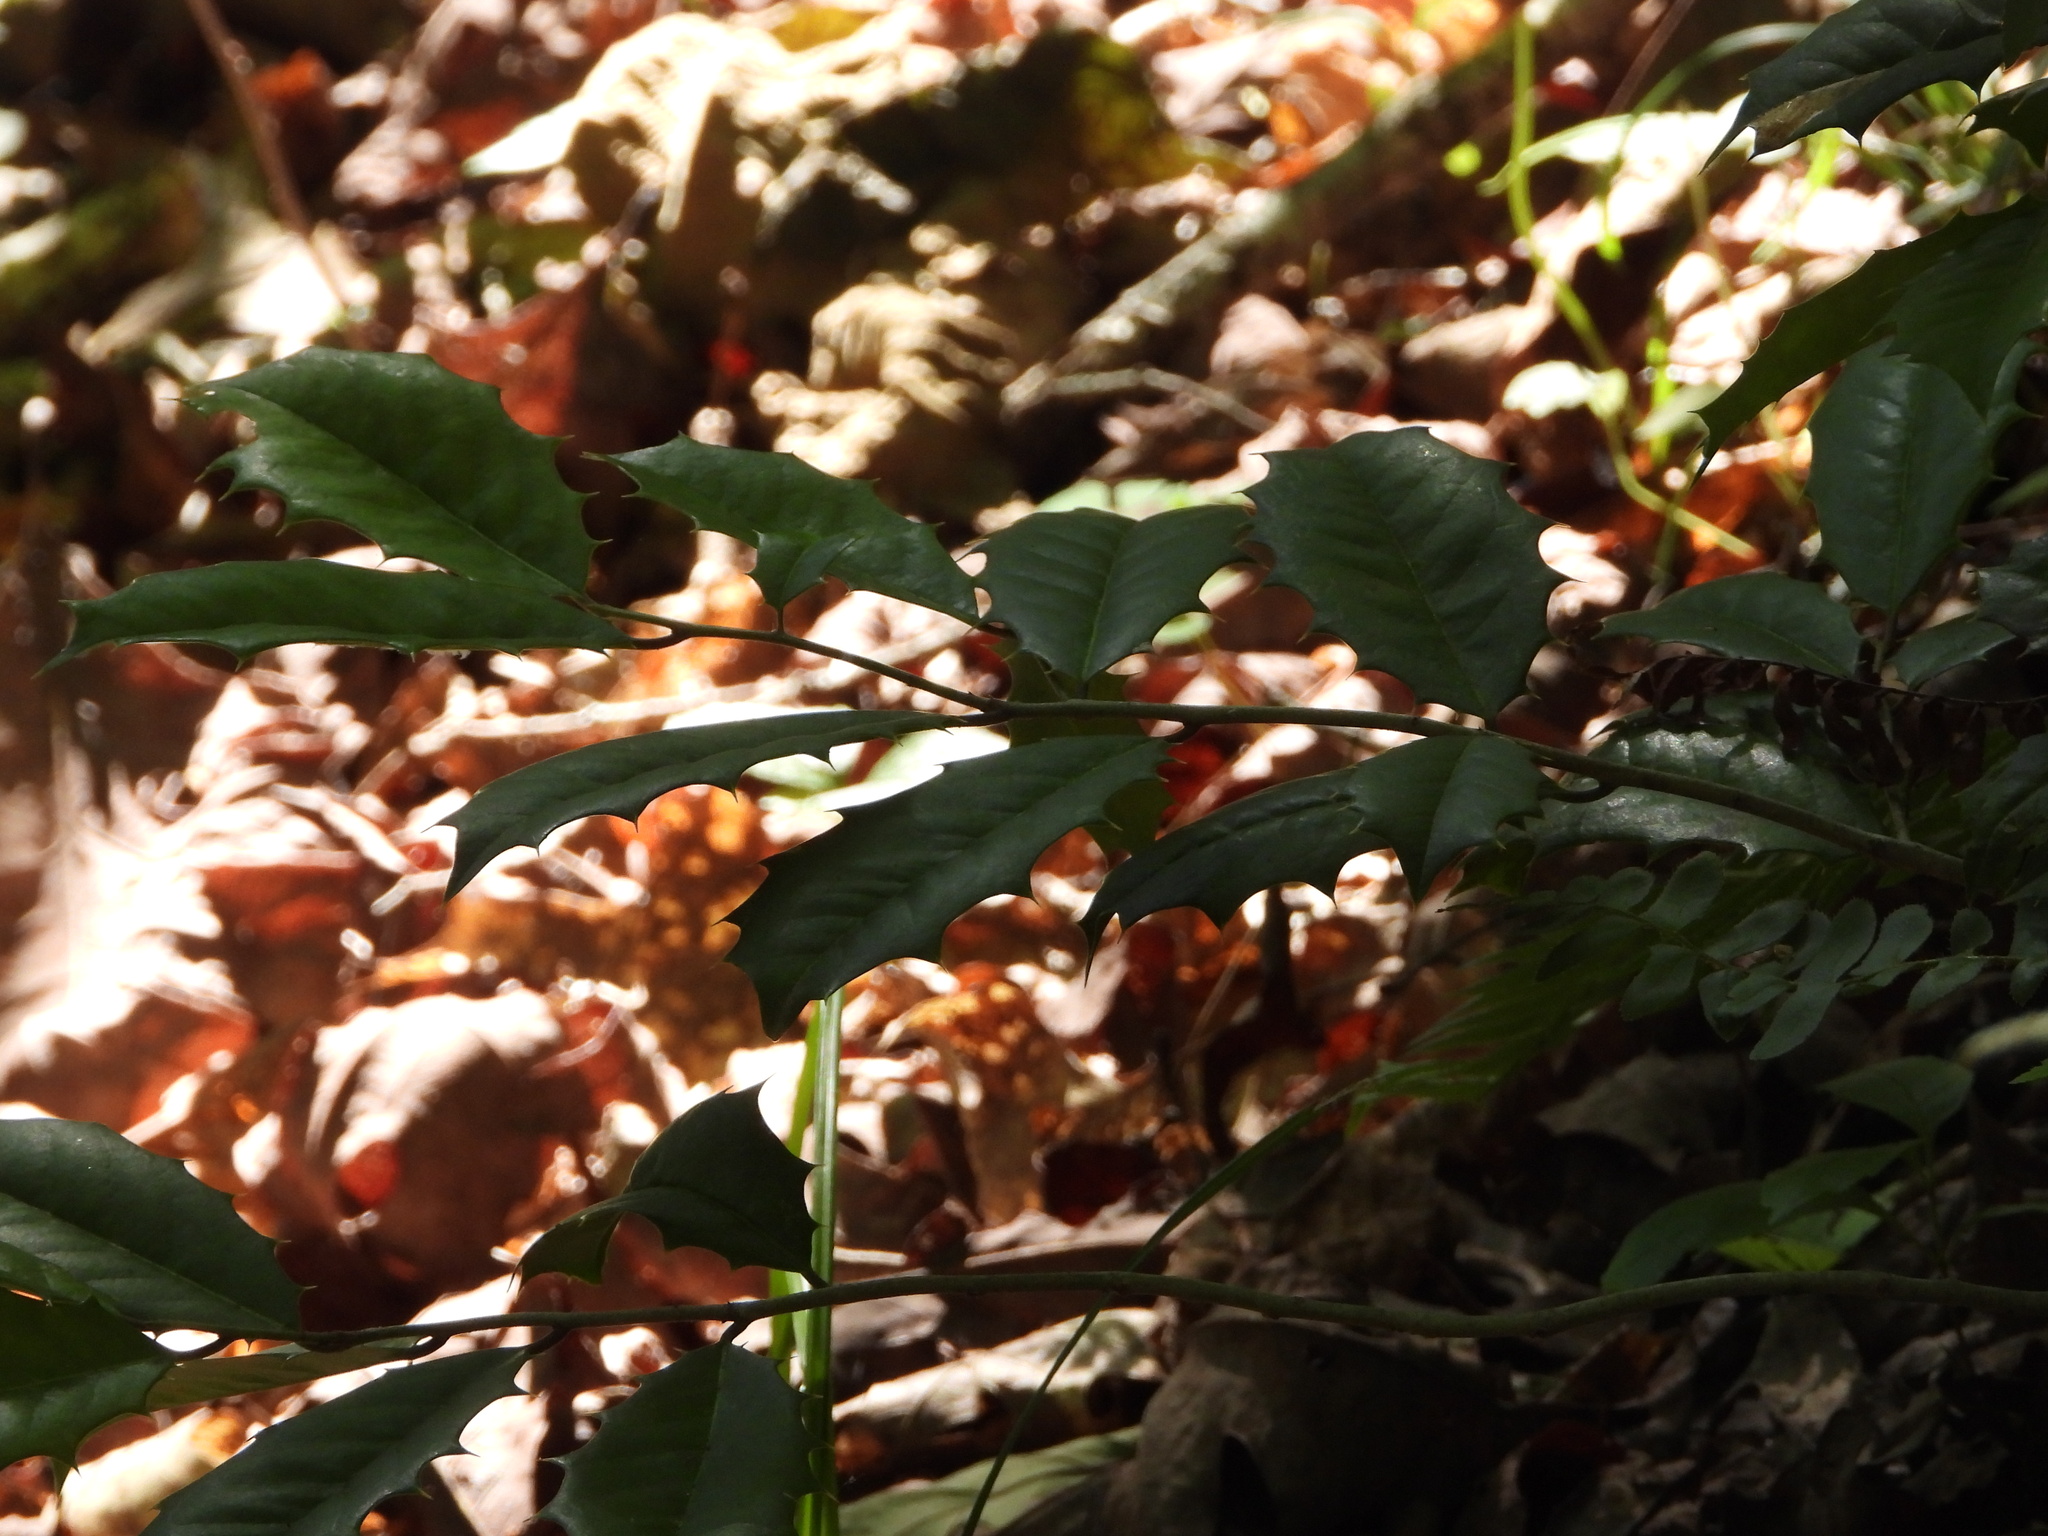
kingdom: Plantae
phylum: Tracheophyta
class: Magnoliopsida
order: Aquifoliales
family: Aquifoliaceae
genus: Ilex
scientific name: Ilex opaca
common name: American holly
